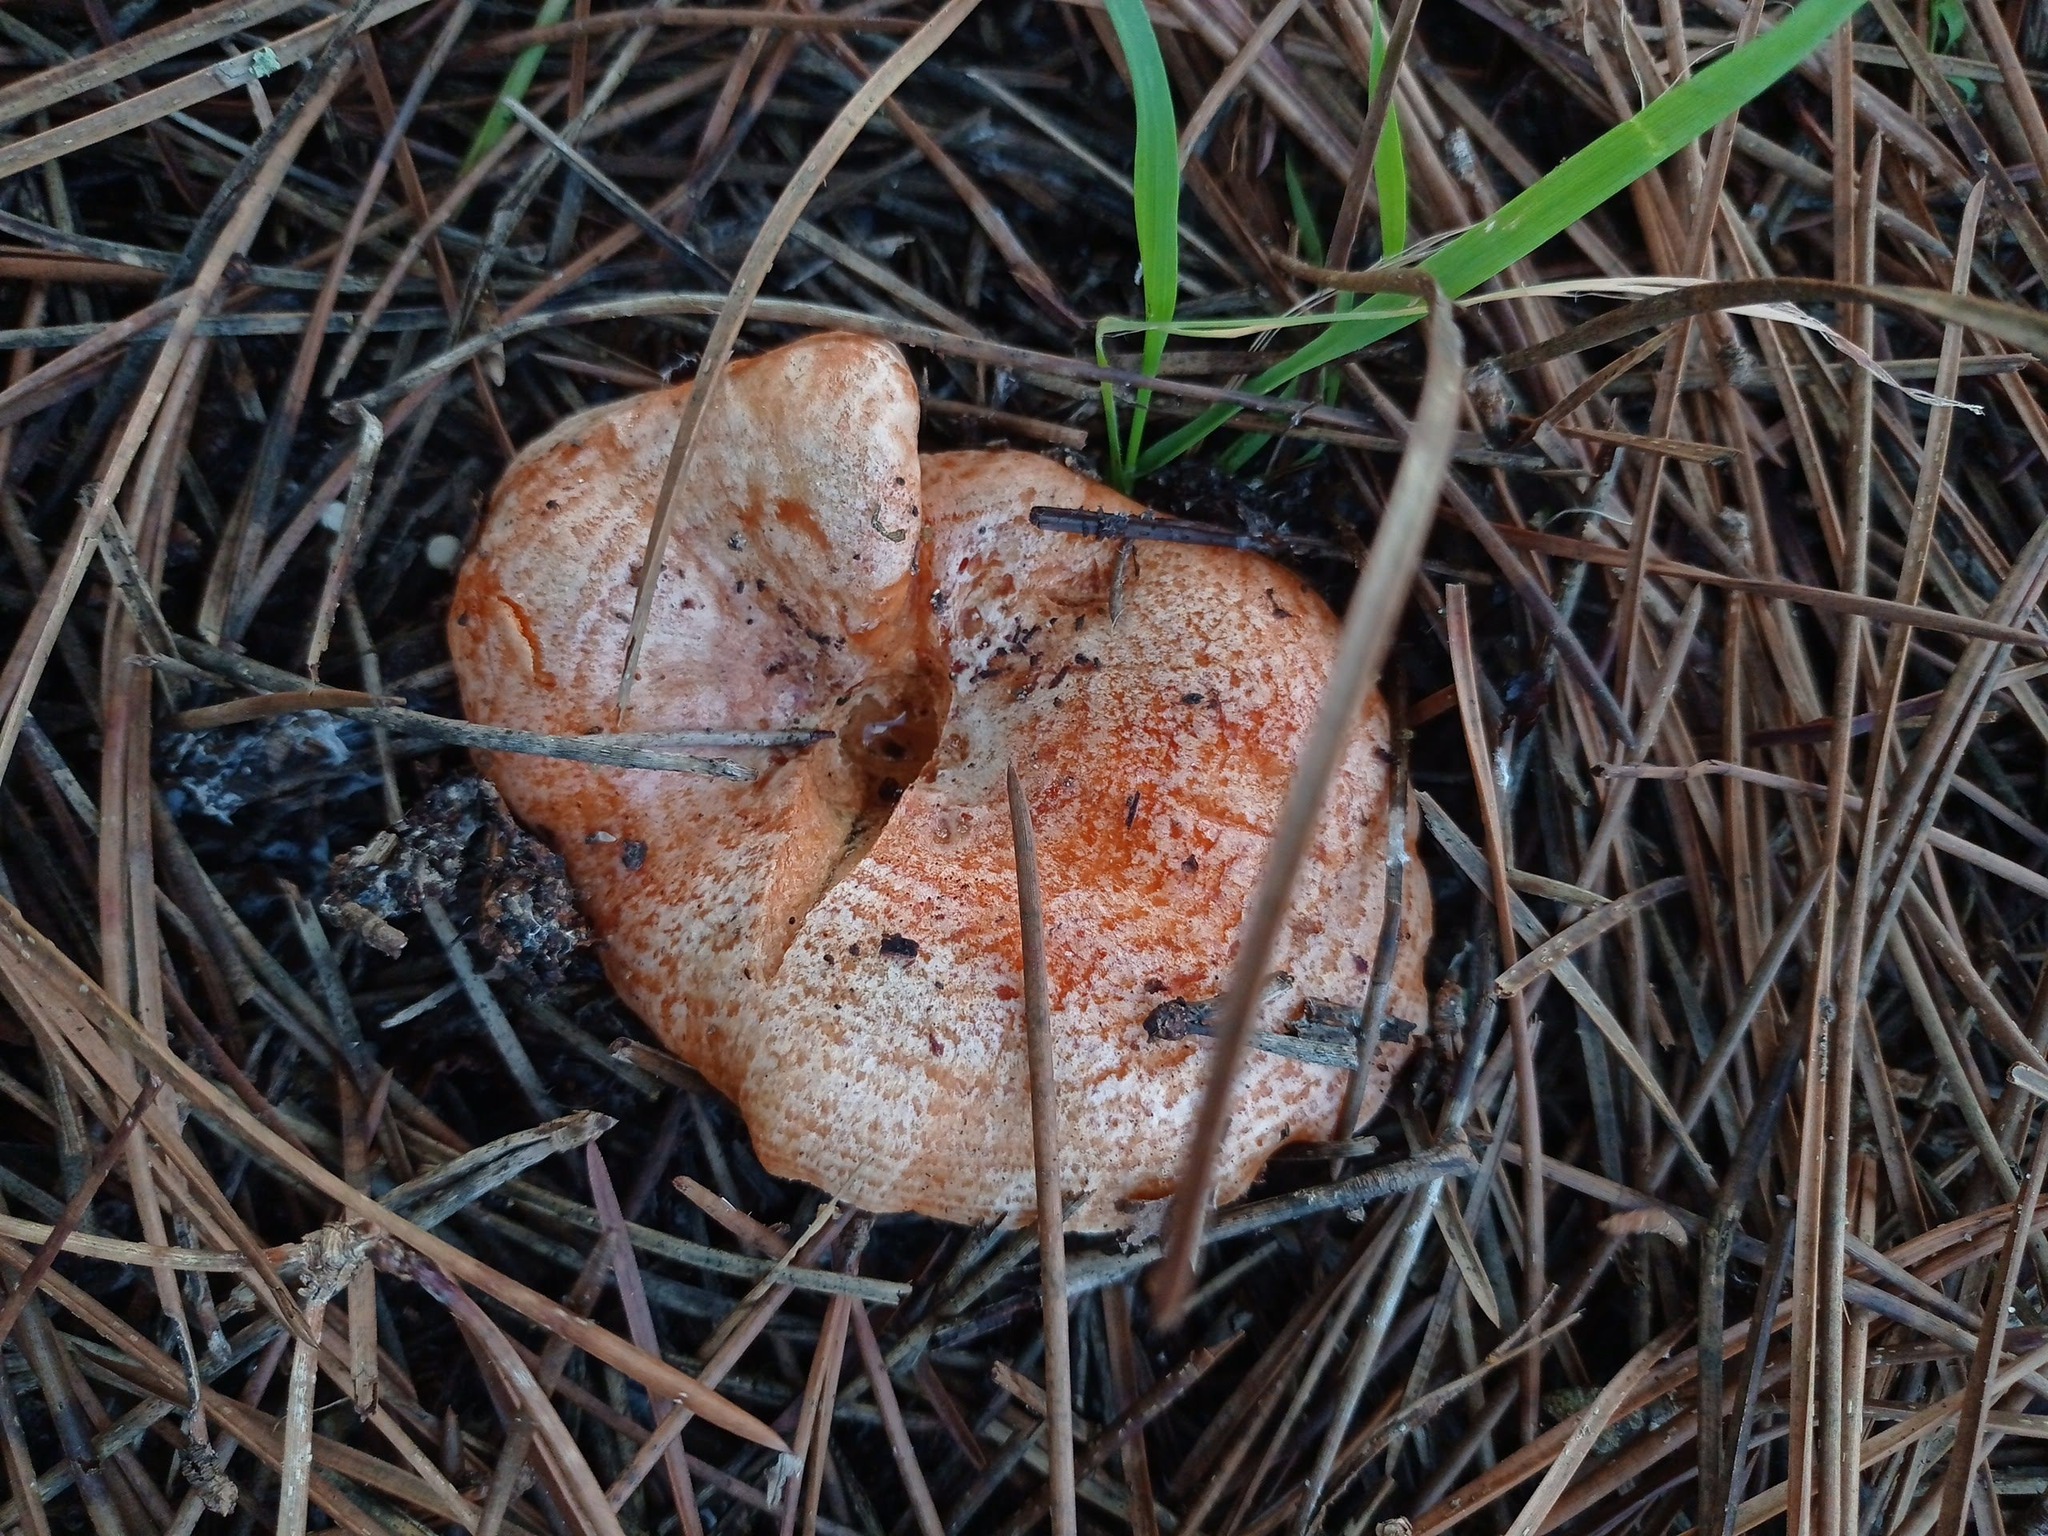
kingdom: Fungi
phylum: Basidiomycota
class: Agaricomycetes
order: Russulales
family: Russulaceae
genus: Lactarius
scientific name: Lactarius deliciosus
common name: Saffron milk-cap
